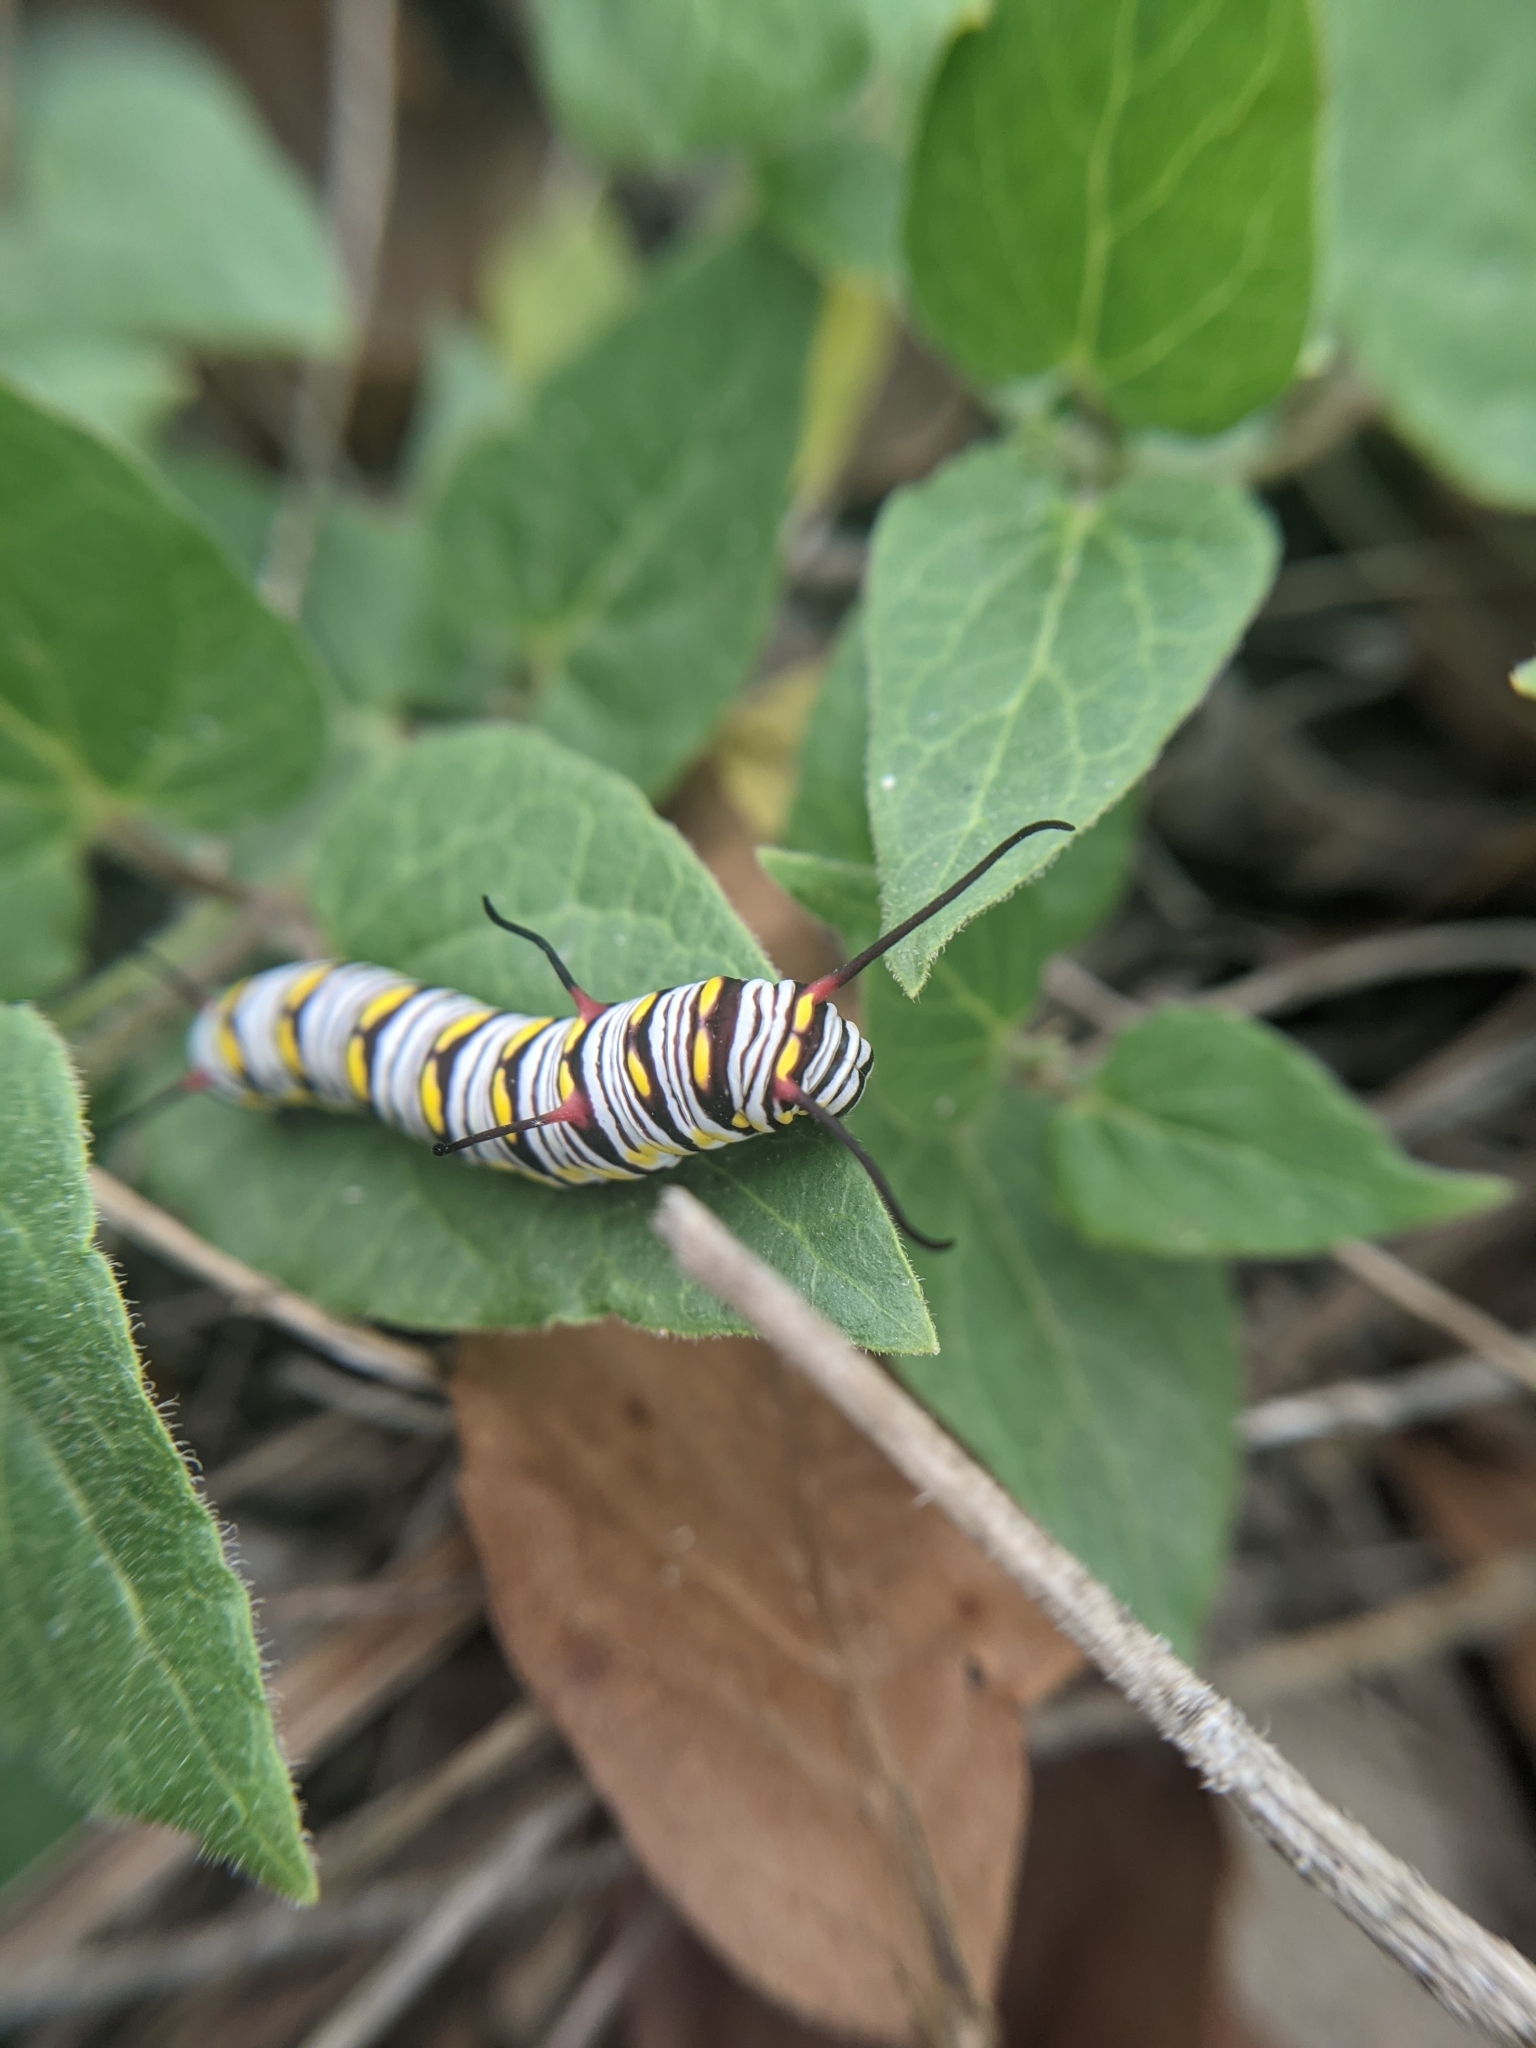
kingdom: Animalia
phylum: Arthropoda
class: Insecta
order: Lepidoptera
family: Nymphalidae
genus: Danaus
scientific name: Danaus gilippus
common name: Queen
